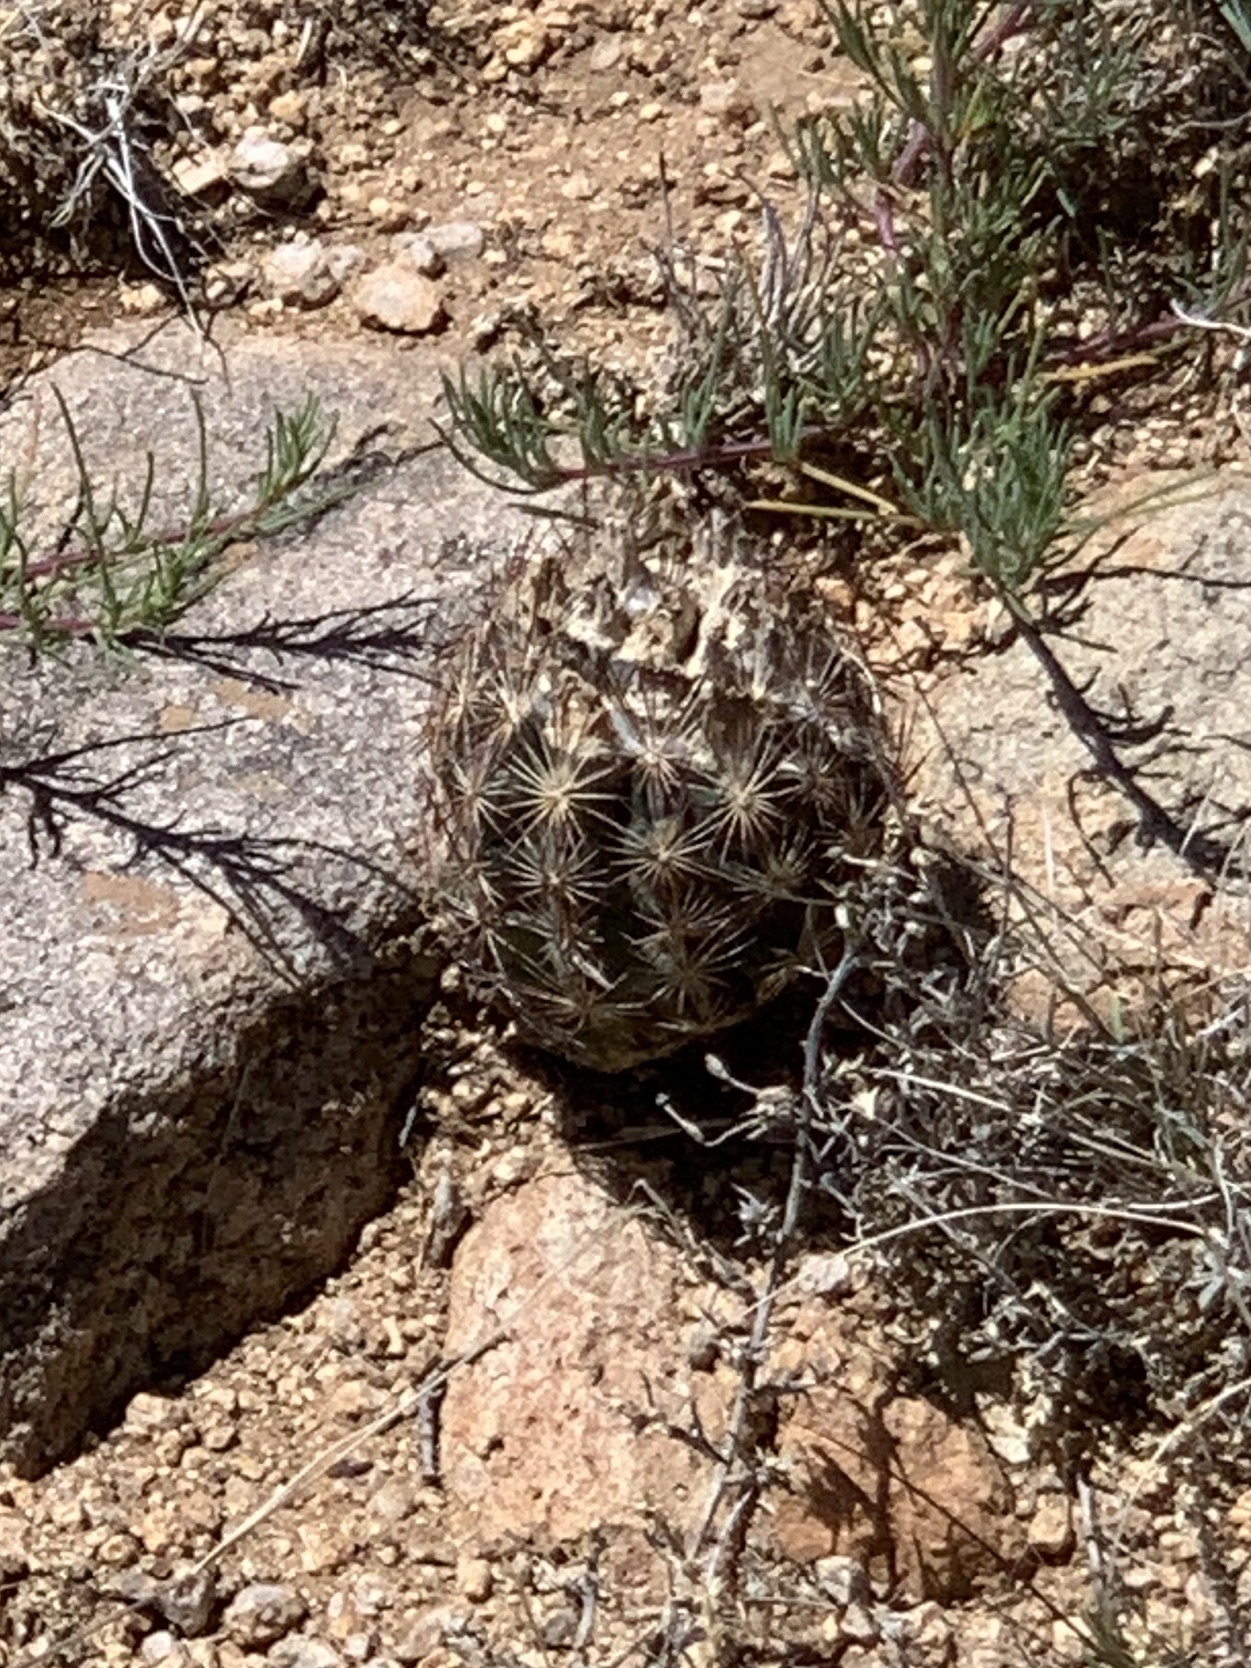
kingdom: Plantae
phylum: Tracheophyta
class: Magnoliopsida
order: Caryophyllales
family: Cactaceae
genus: Sclerocactus
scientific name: Sclerocactus intertextus
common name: White fish-hook cactus
